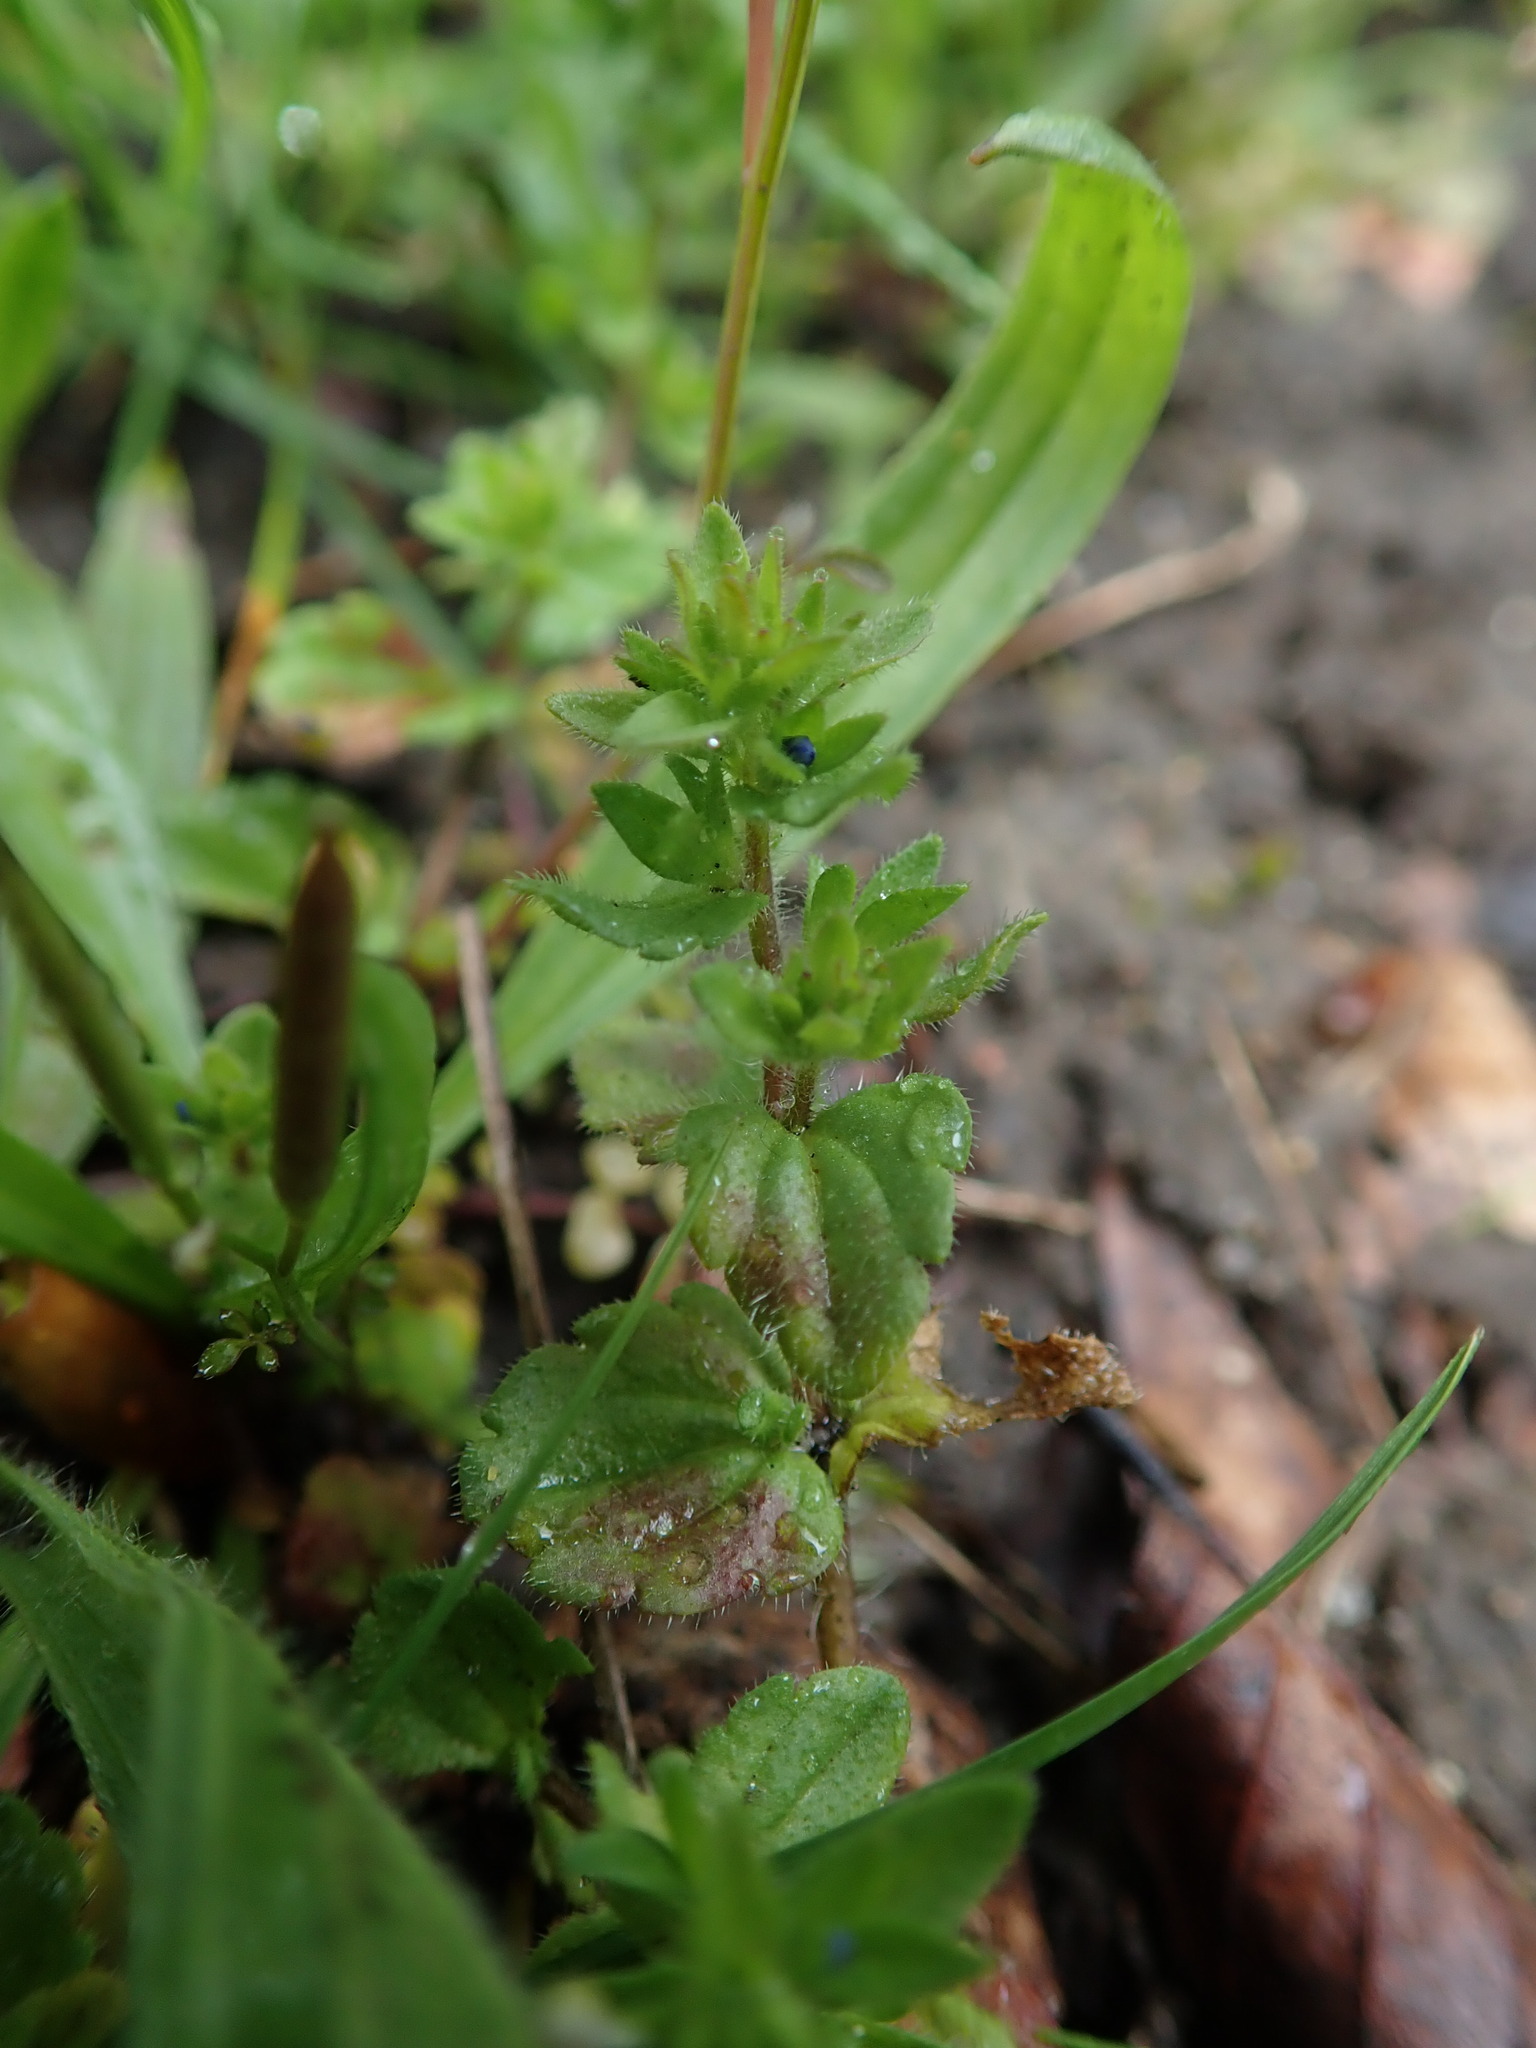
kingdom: Plantae
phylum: Tracheophyta
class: Magnoliopsida
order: Lamiales
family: Plantaginaceae
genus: Veronica
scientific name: Veronica arvensis
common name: Corn speedwell
